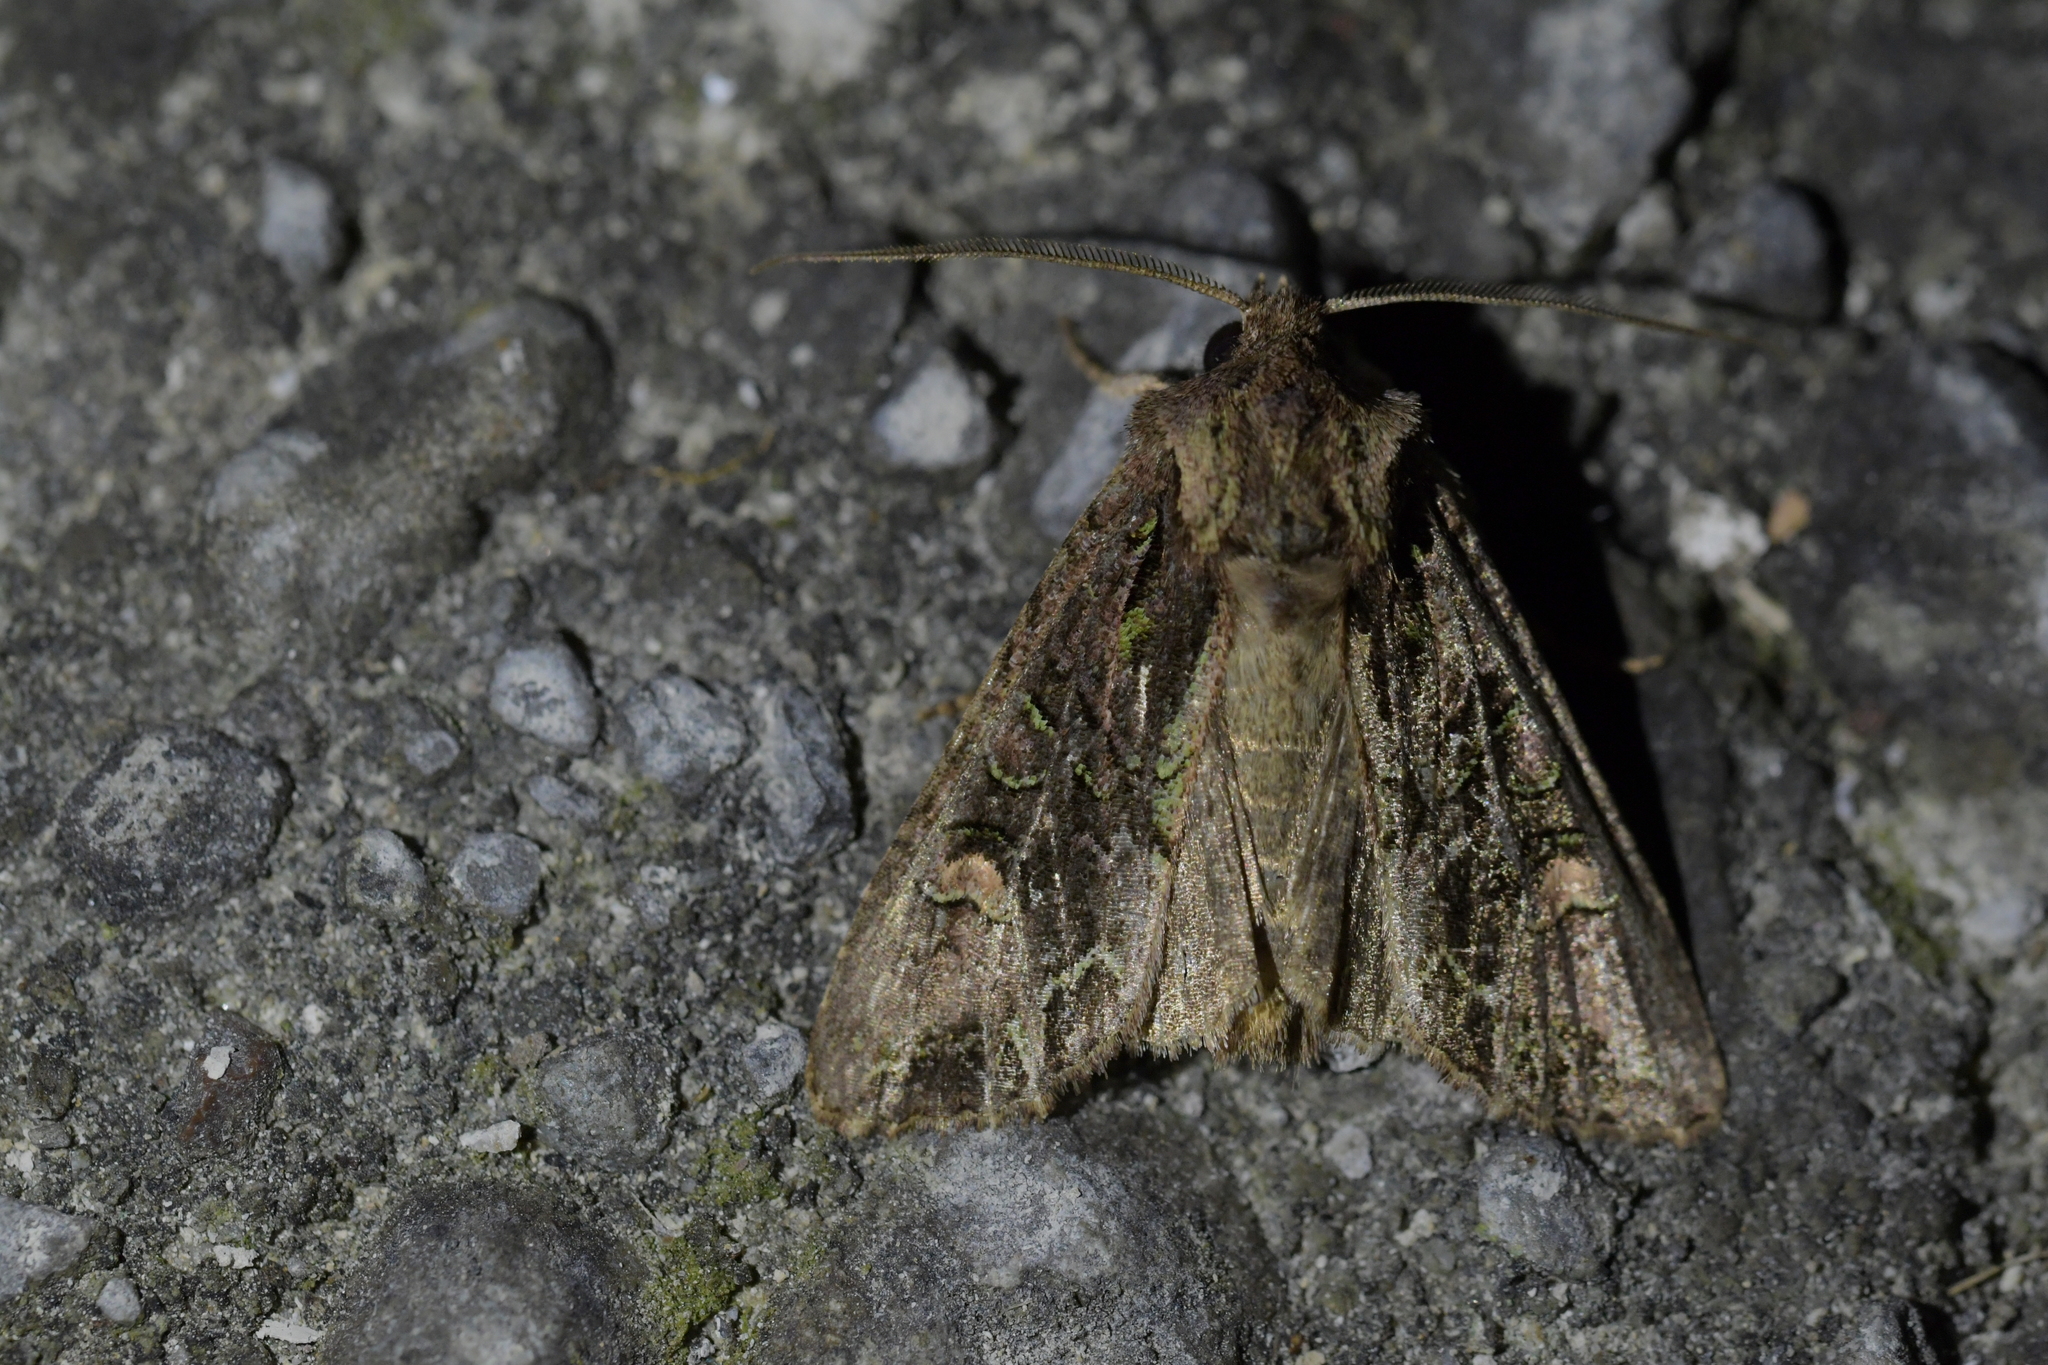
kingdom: Animalia
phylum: Arthropoda
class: Insecta
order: Lepidoptera
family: Noctuidae
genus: Ichneutica
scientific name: Ichneutica insignis
